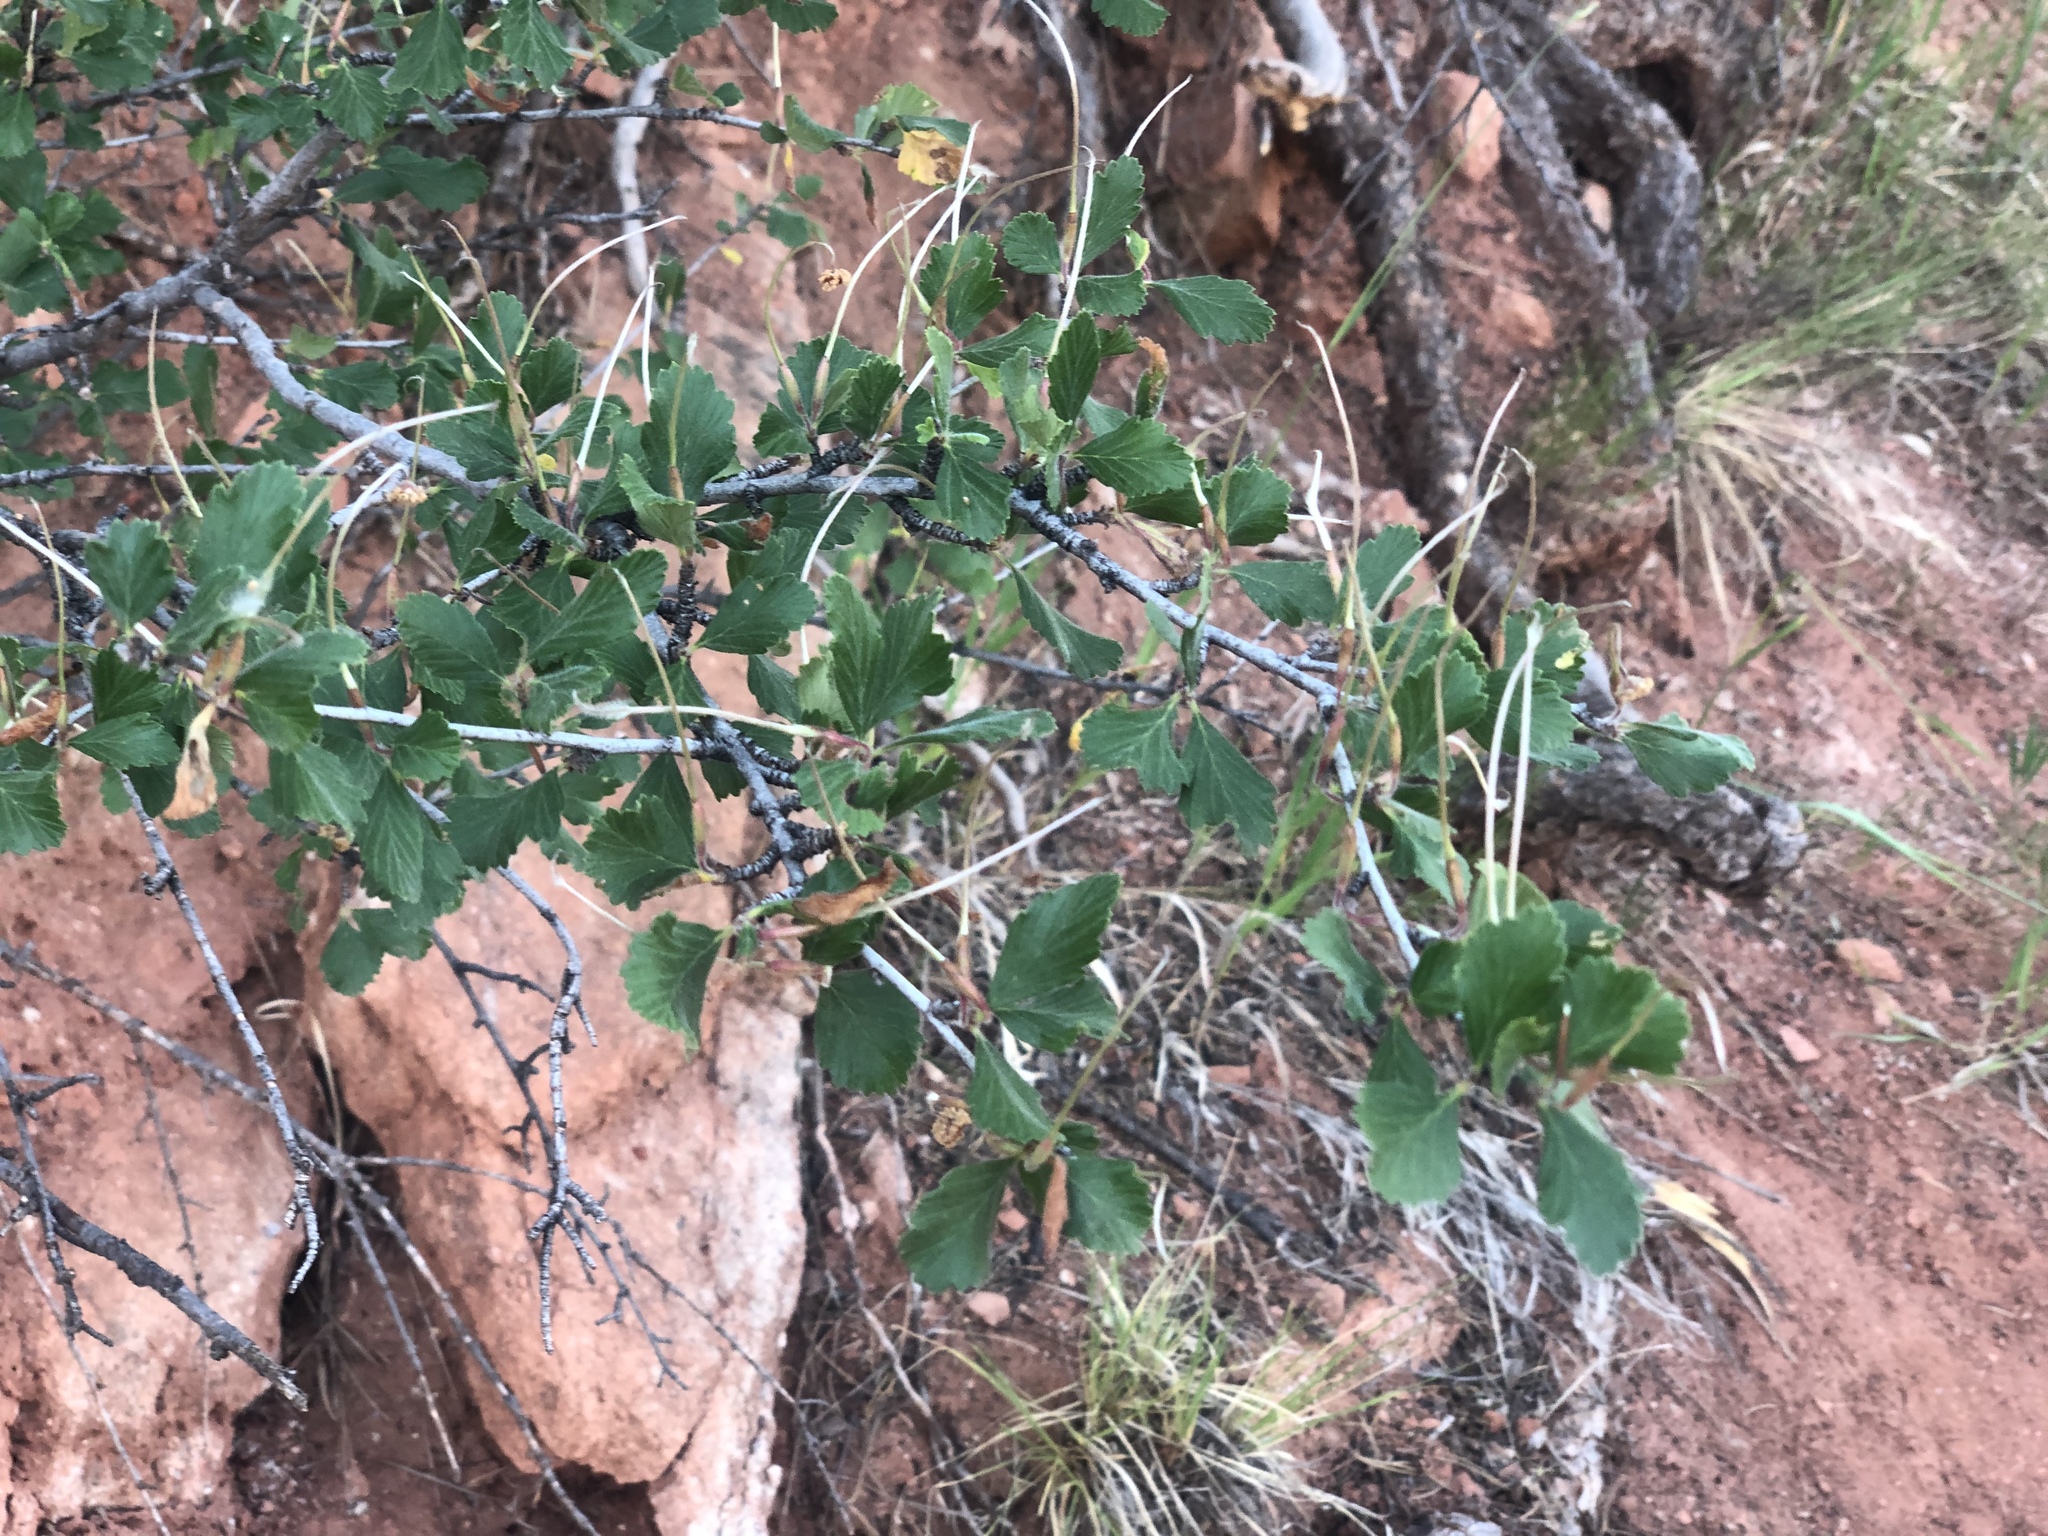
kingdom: Plantae
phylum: Tracheophyta
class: Magnoliopsida
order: Rosales
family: Rosaceae
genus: Cercocarpus
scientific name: Cercocarpus montanus
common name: Alder-leaf cercocarpus
